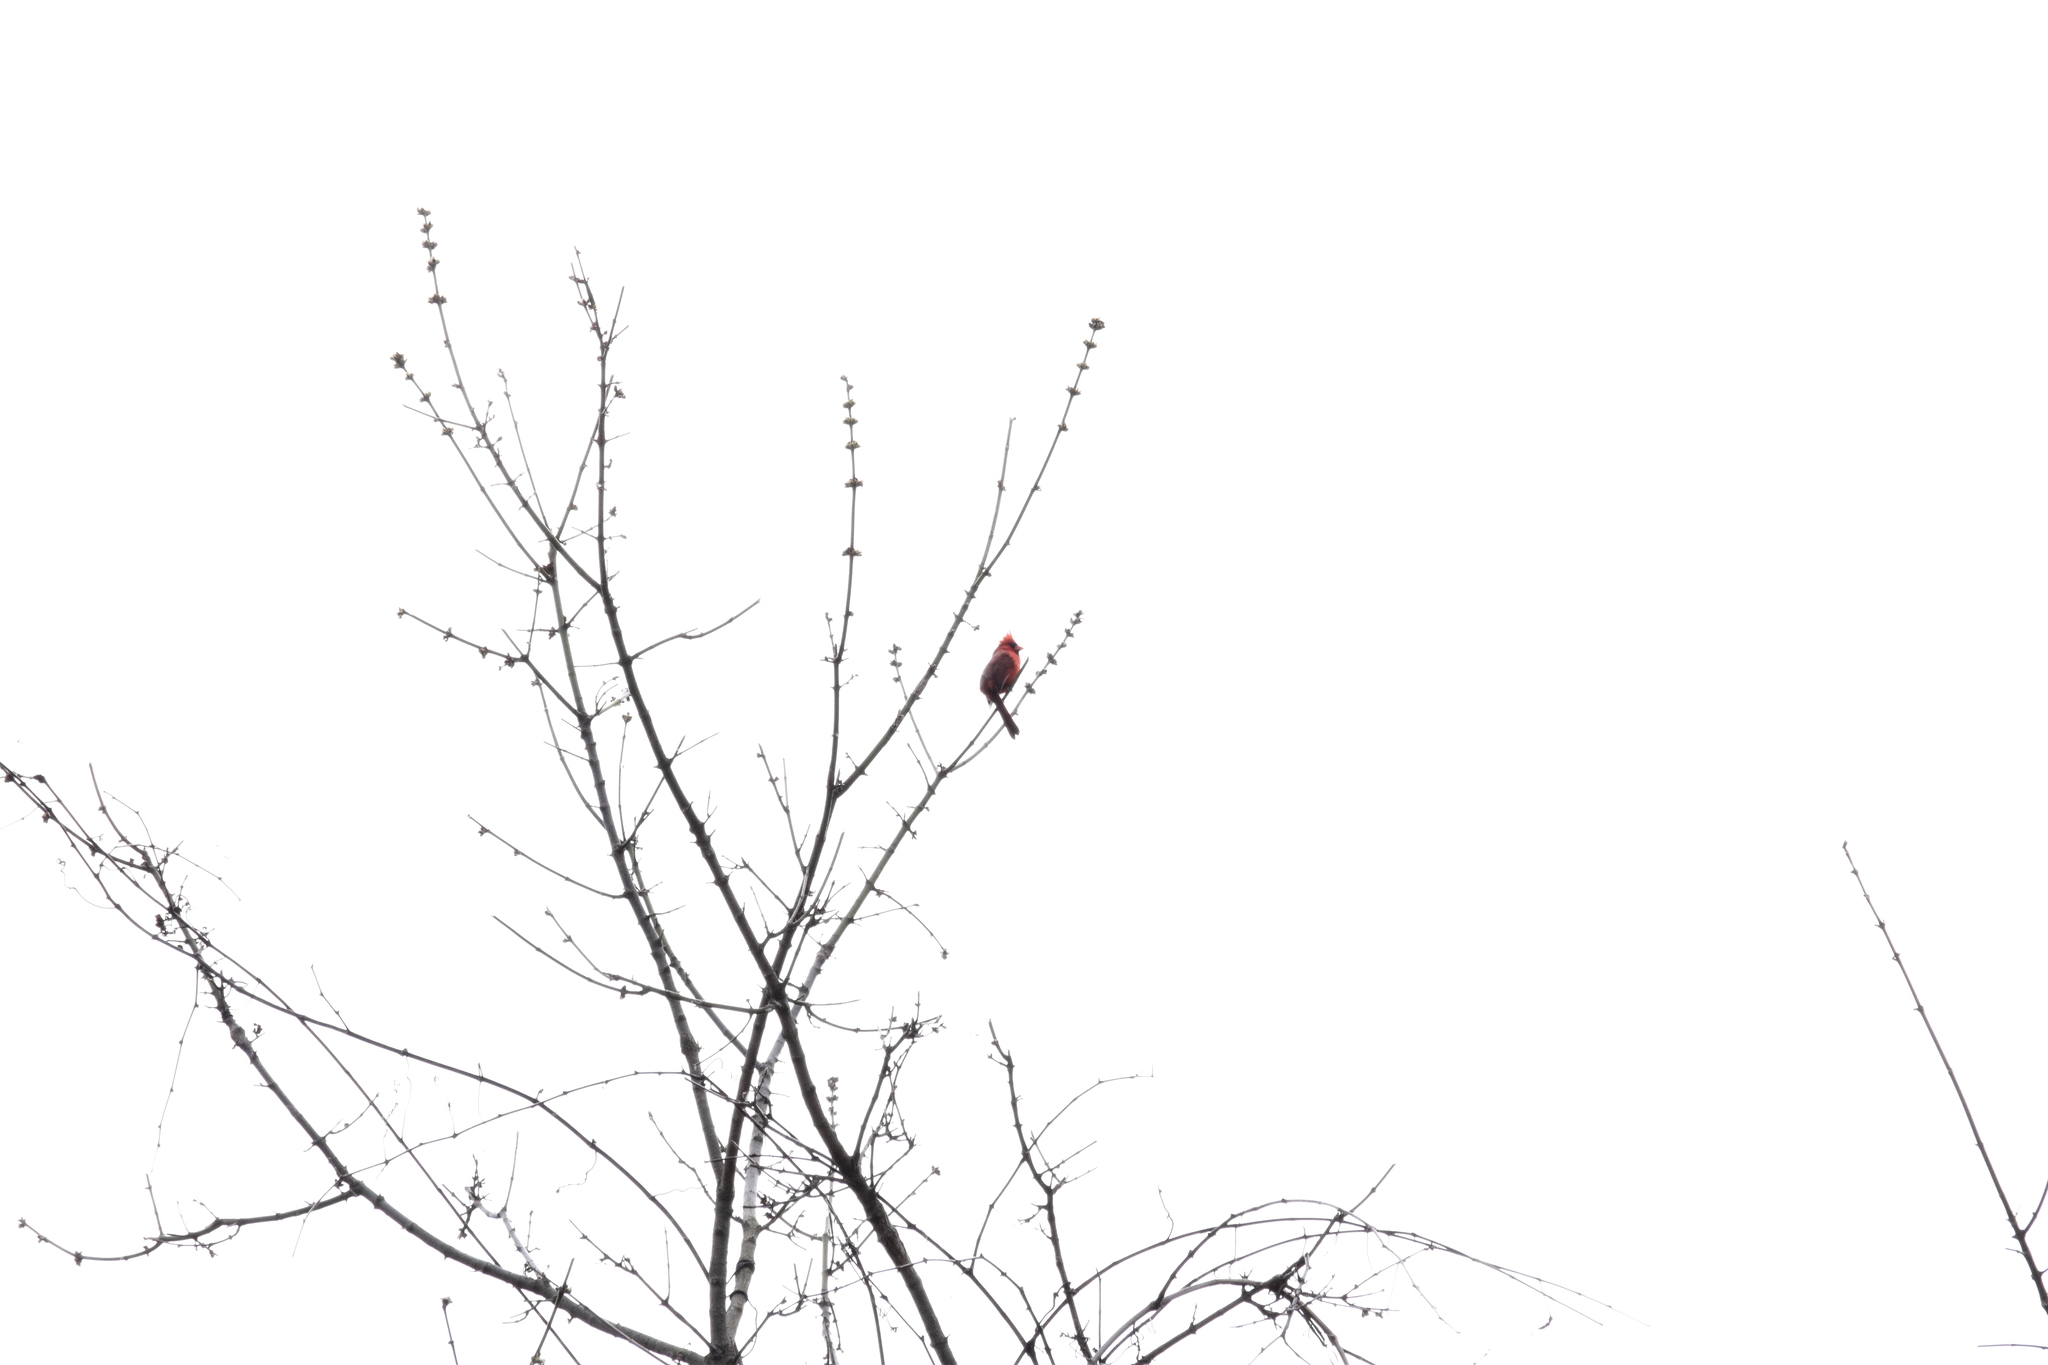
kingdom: Animalia
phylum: Chordata
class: Aves
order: Passeriformes
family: Cardinalidae
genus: Cardinalis
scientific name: Cardinalis cardinalis
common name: Northern cardinal
